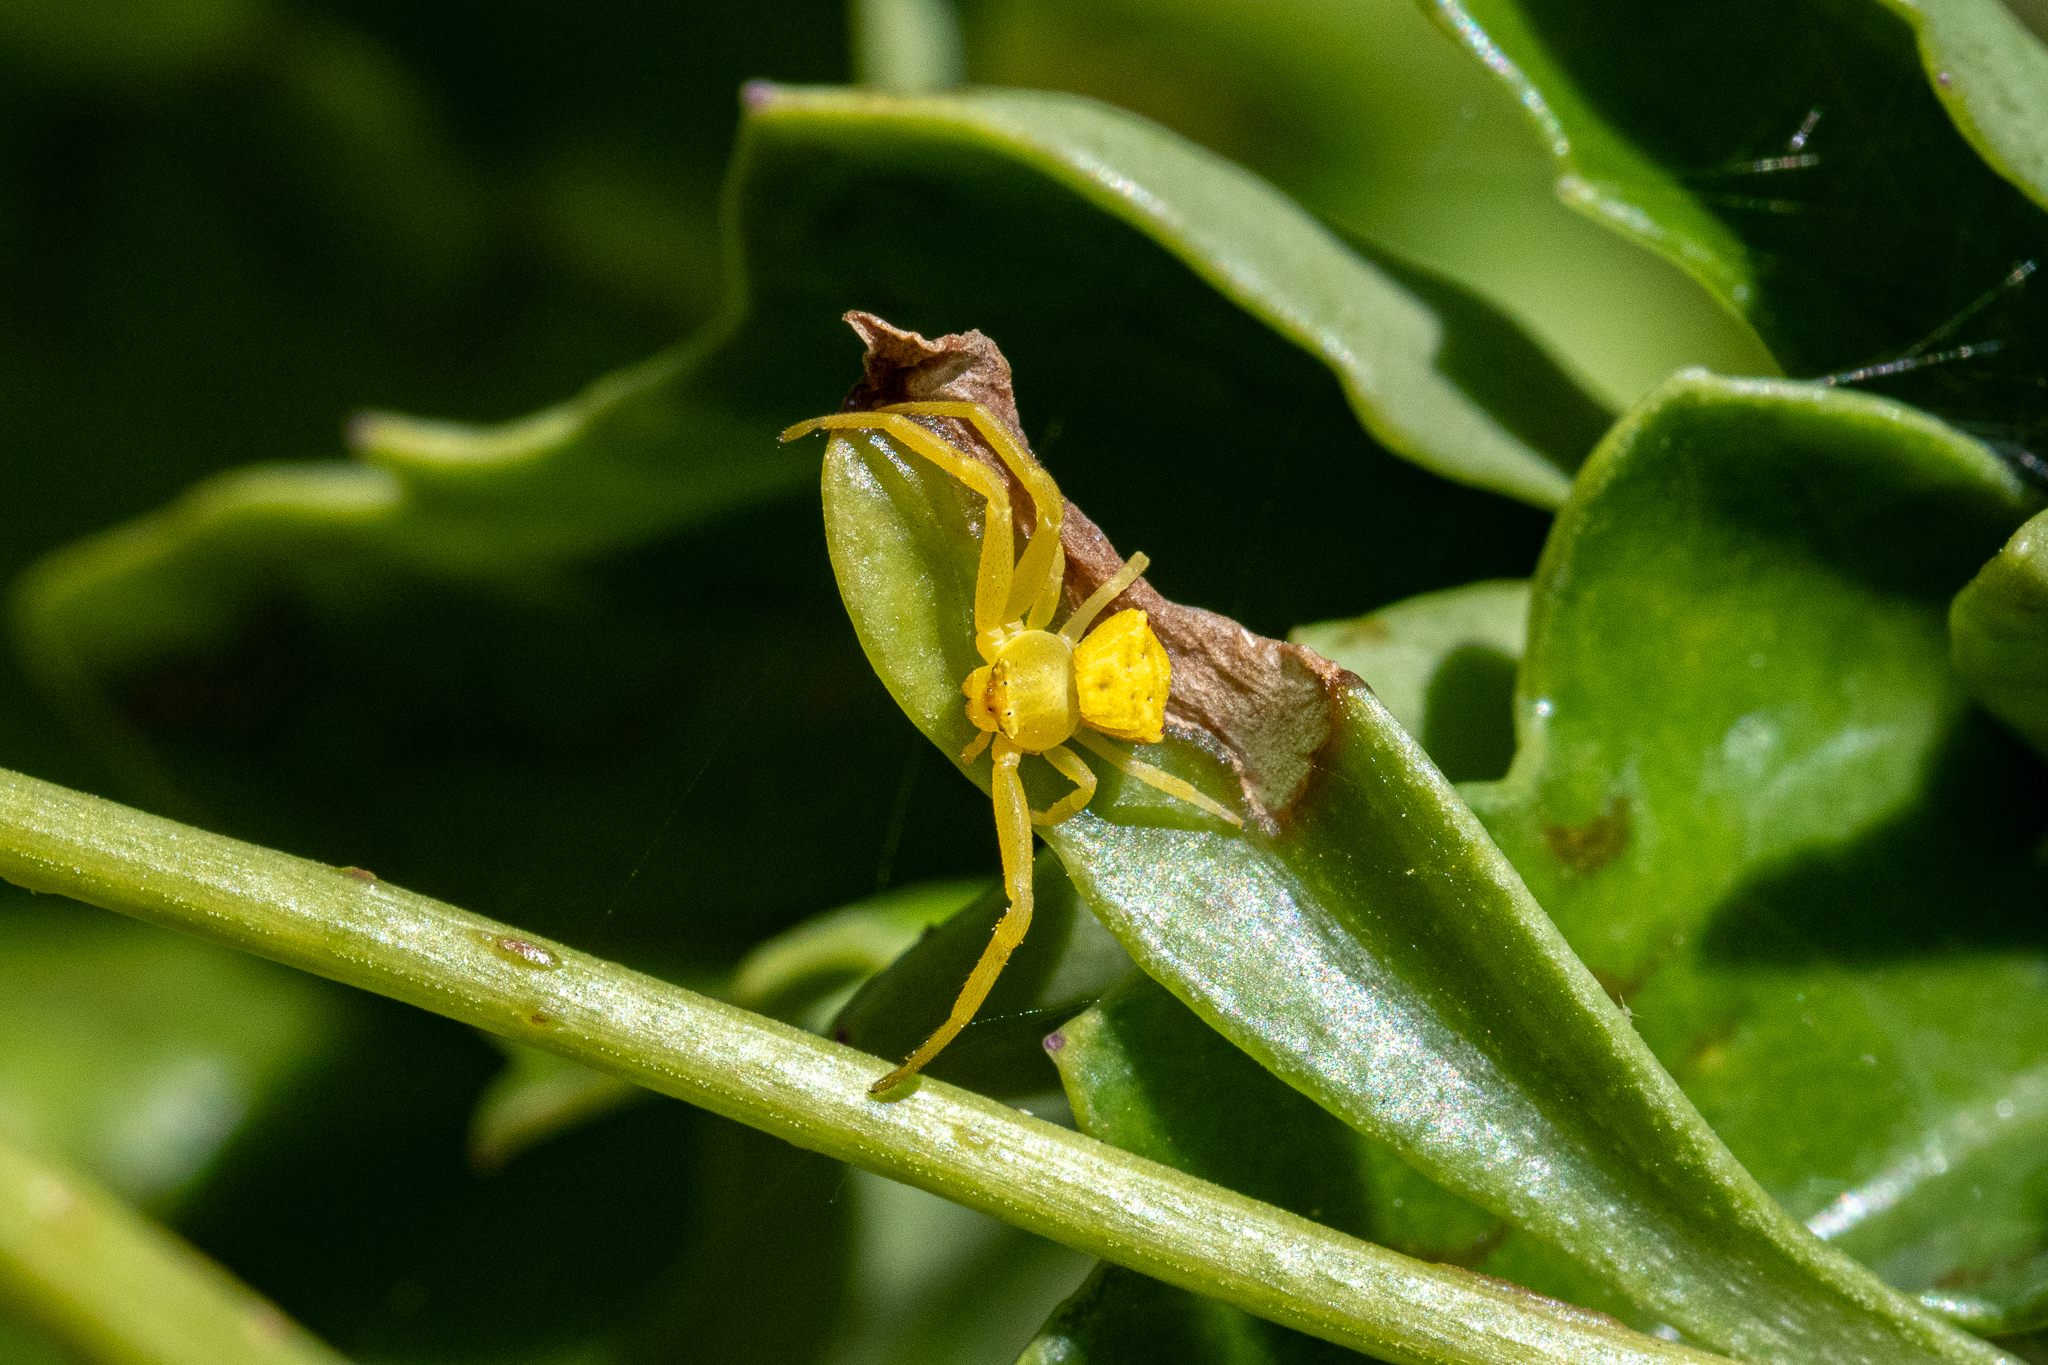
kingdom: Animalia
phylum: Arthropoda
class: Arachnida
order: Araneae
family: Thomisidae
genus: Thomisus
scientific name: Thomisus citrinellus
